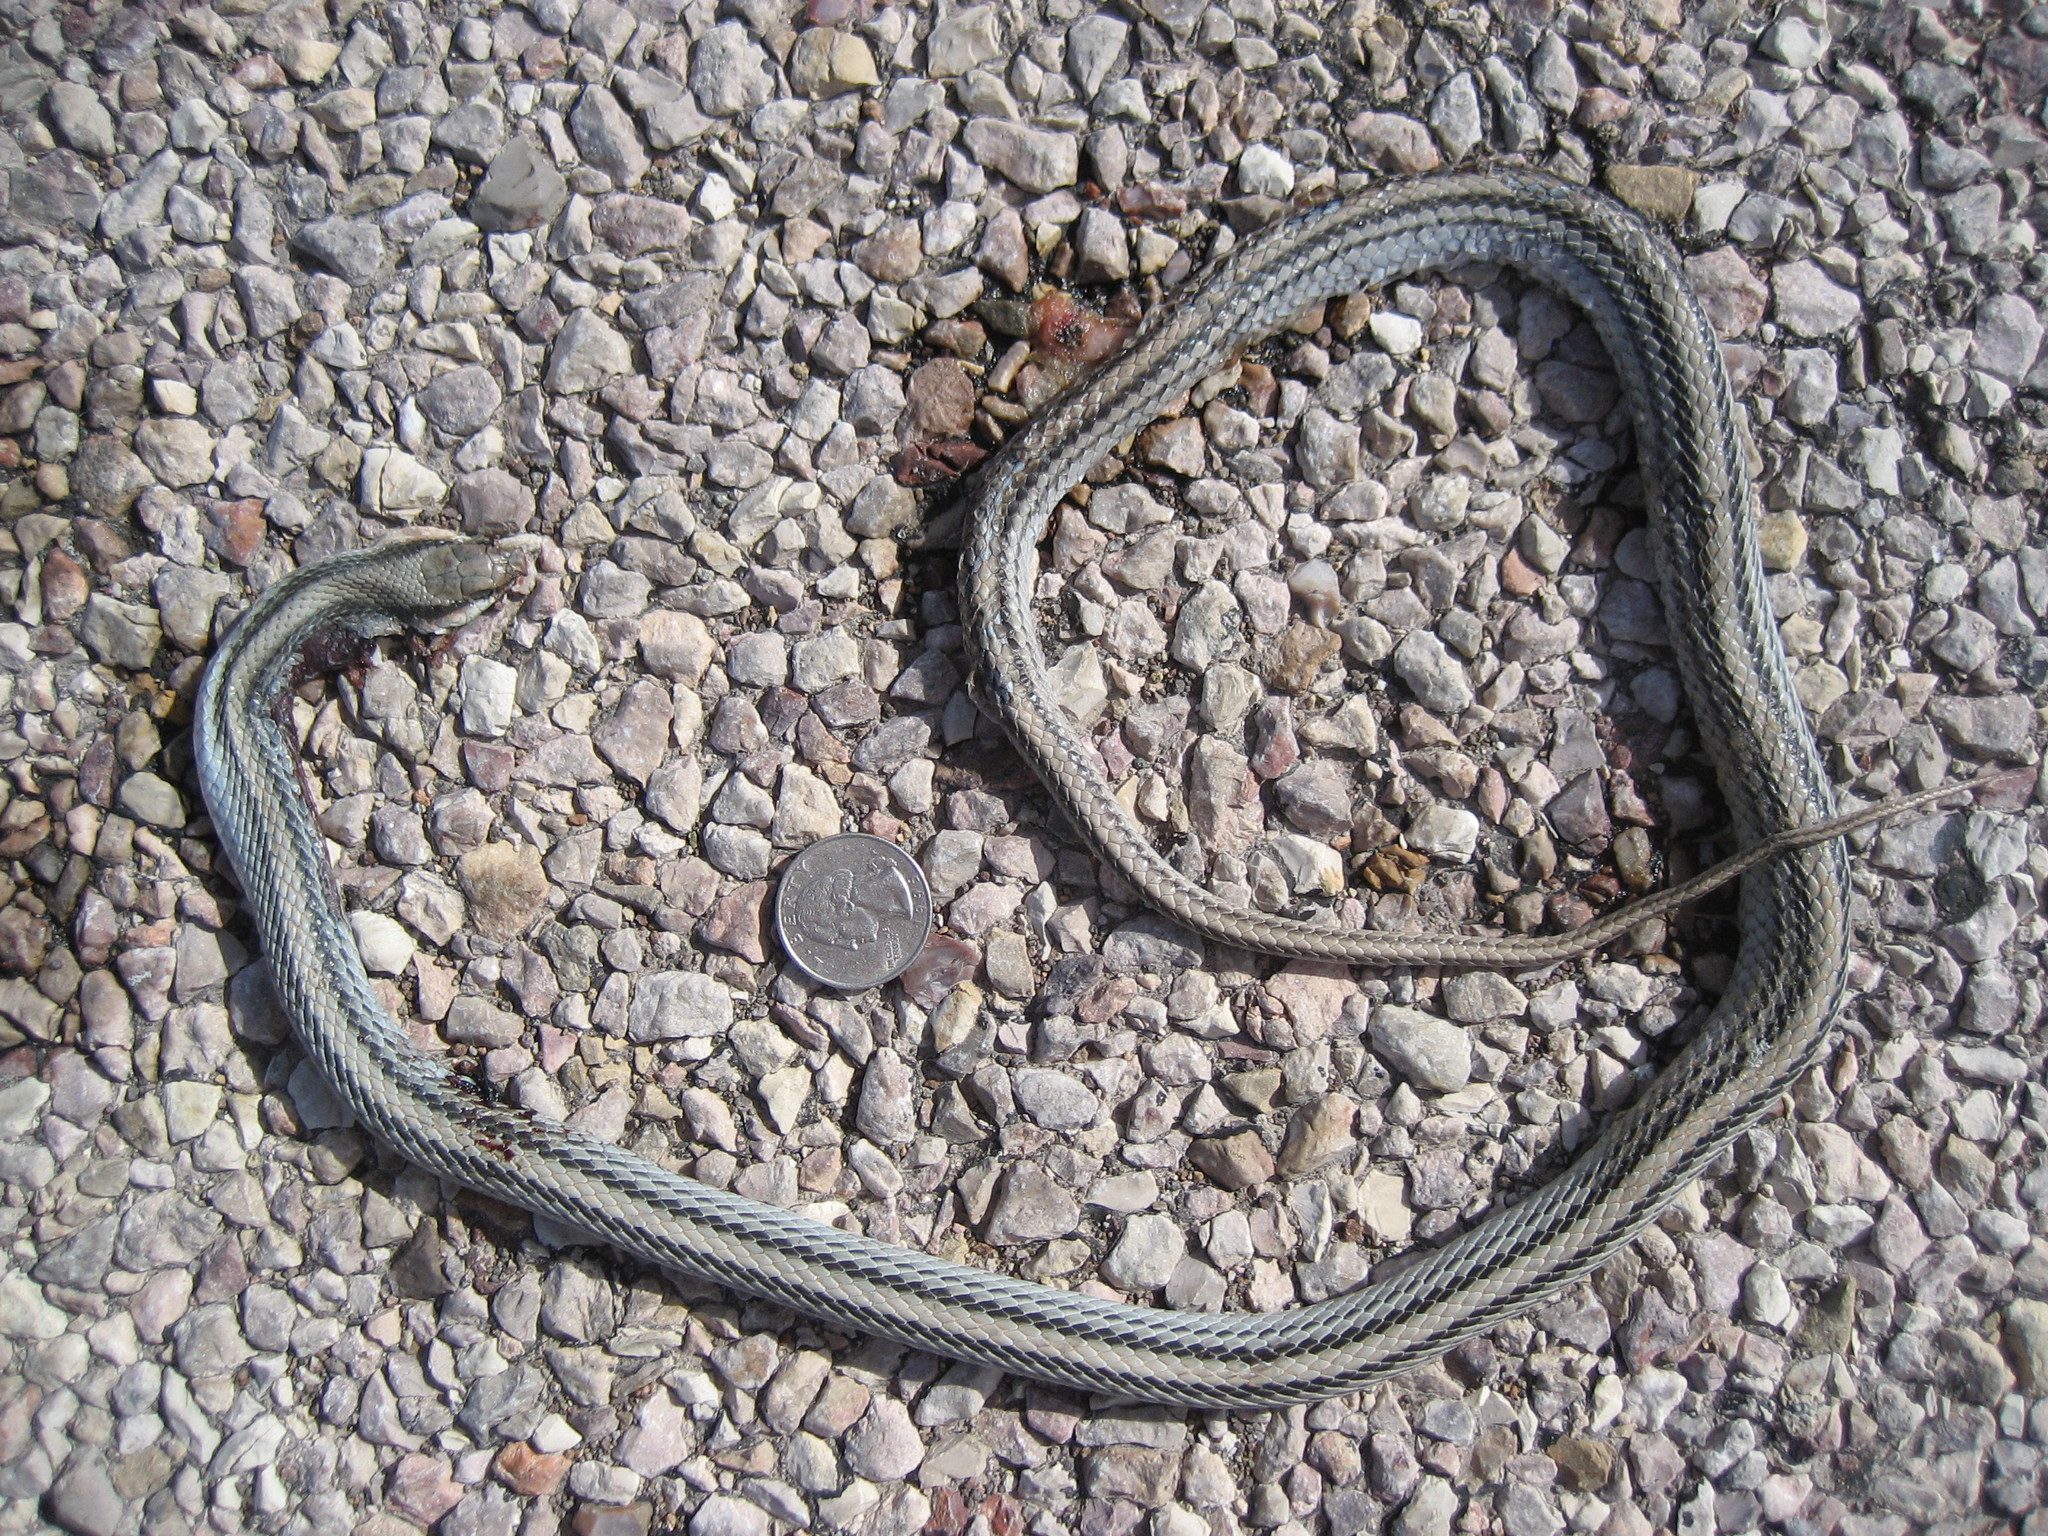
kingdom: Animalia
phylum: Chordata
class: Squamata
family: Colubridae
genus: Salvadora
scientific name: Salvadora deserticola
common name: Big bend patchnose snake
